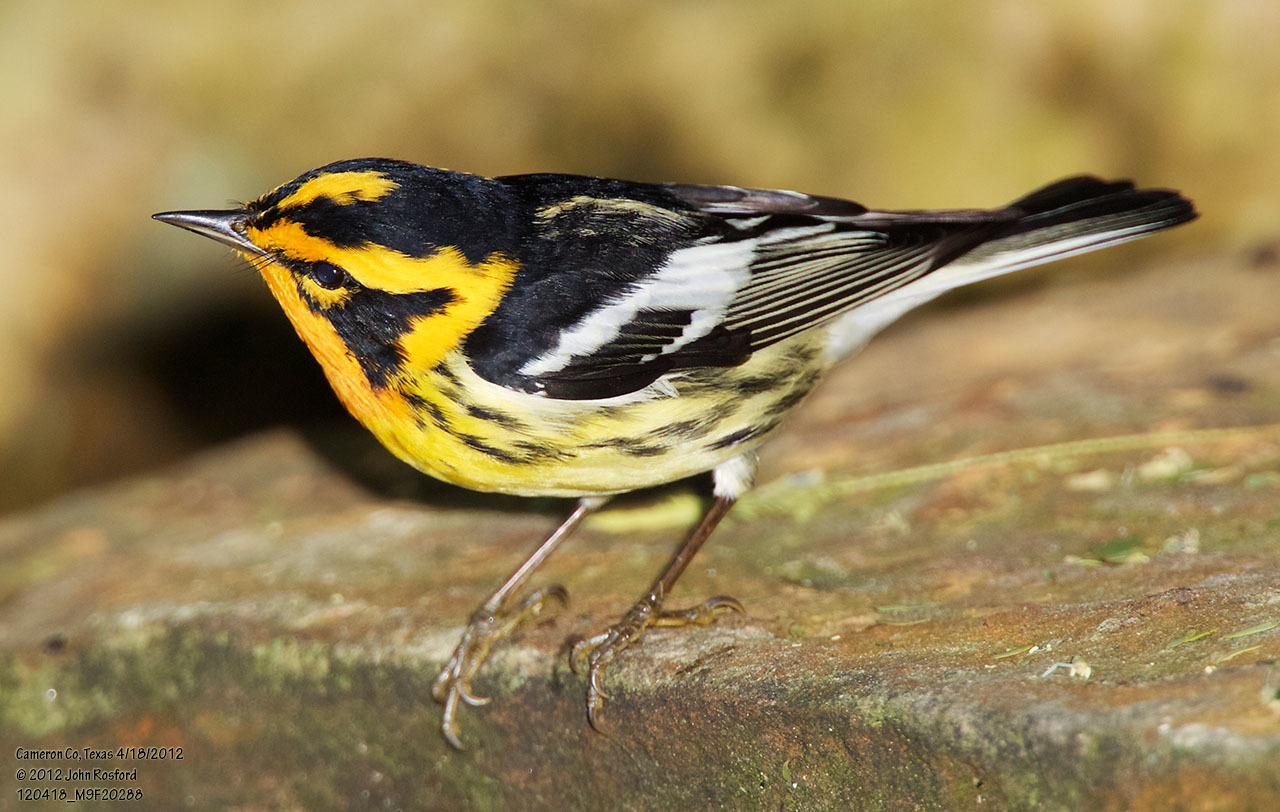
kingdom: Animalia
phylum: Chordata
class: Aves
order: Passeriformes
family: Parulidae
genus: Setophaga
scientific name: Setophaga fusca
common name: Blackburnian warbler
